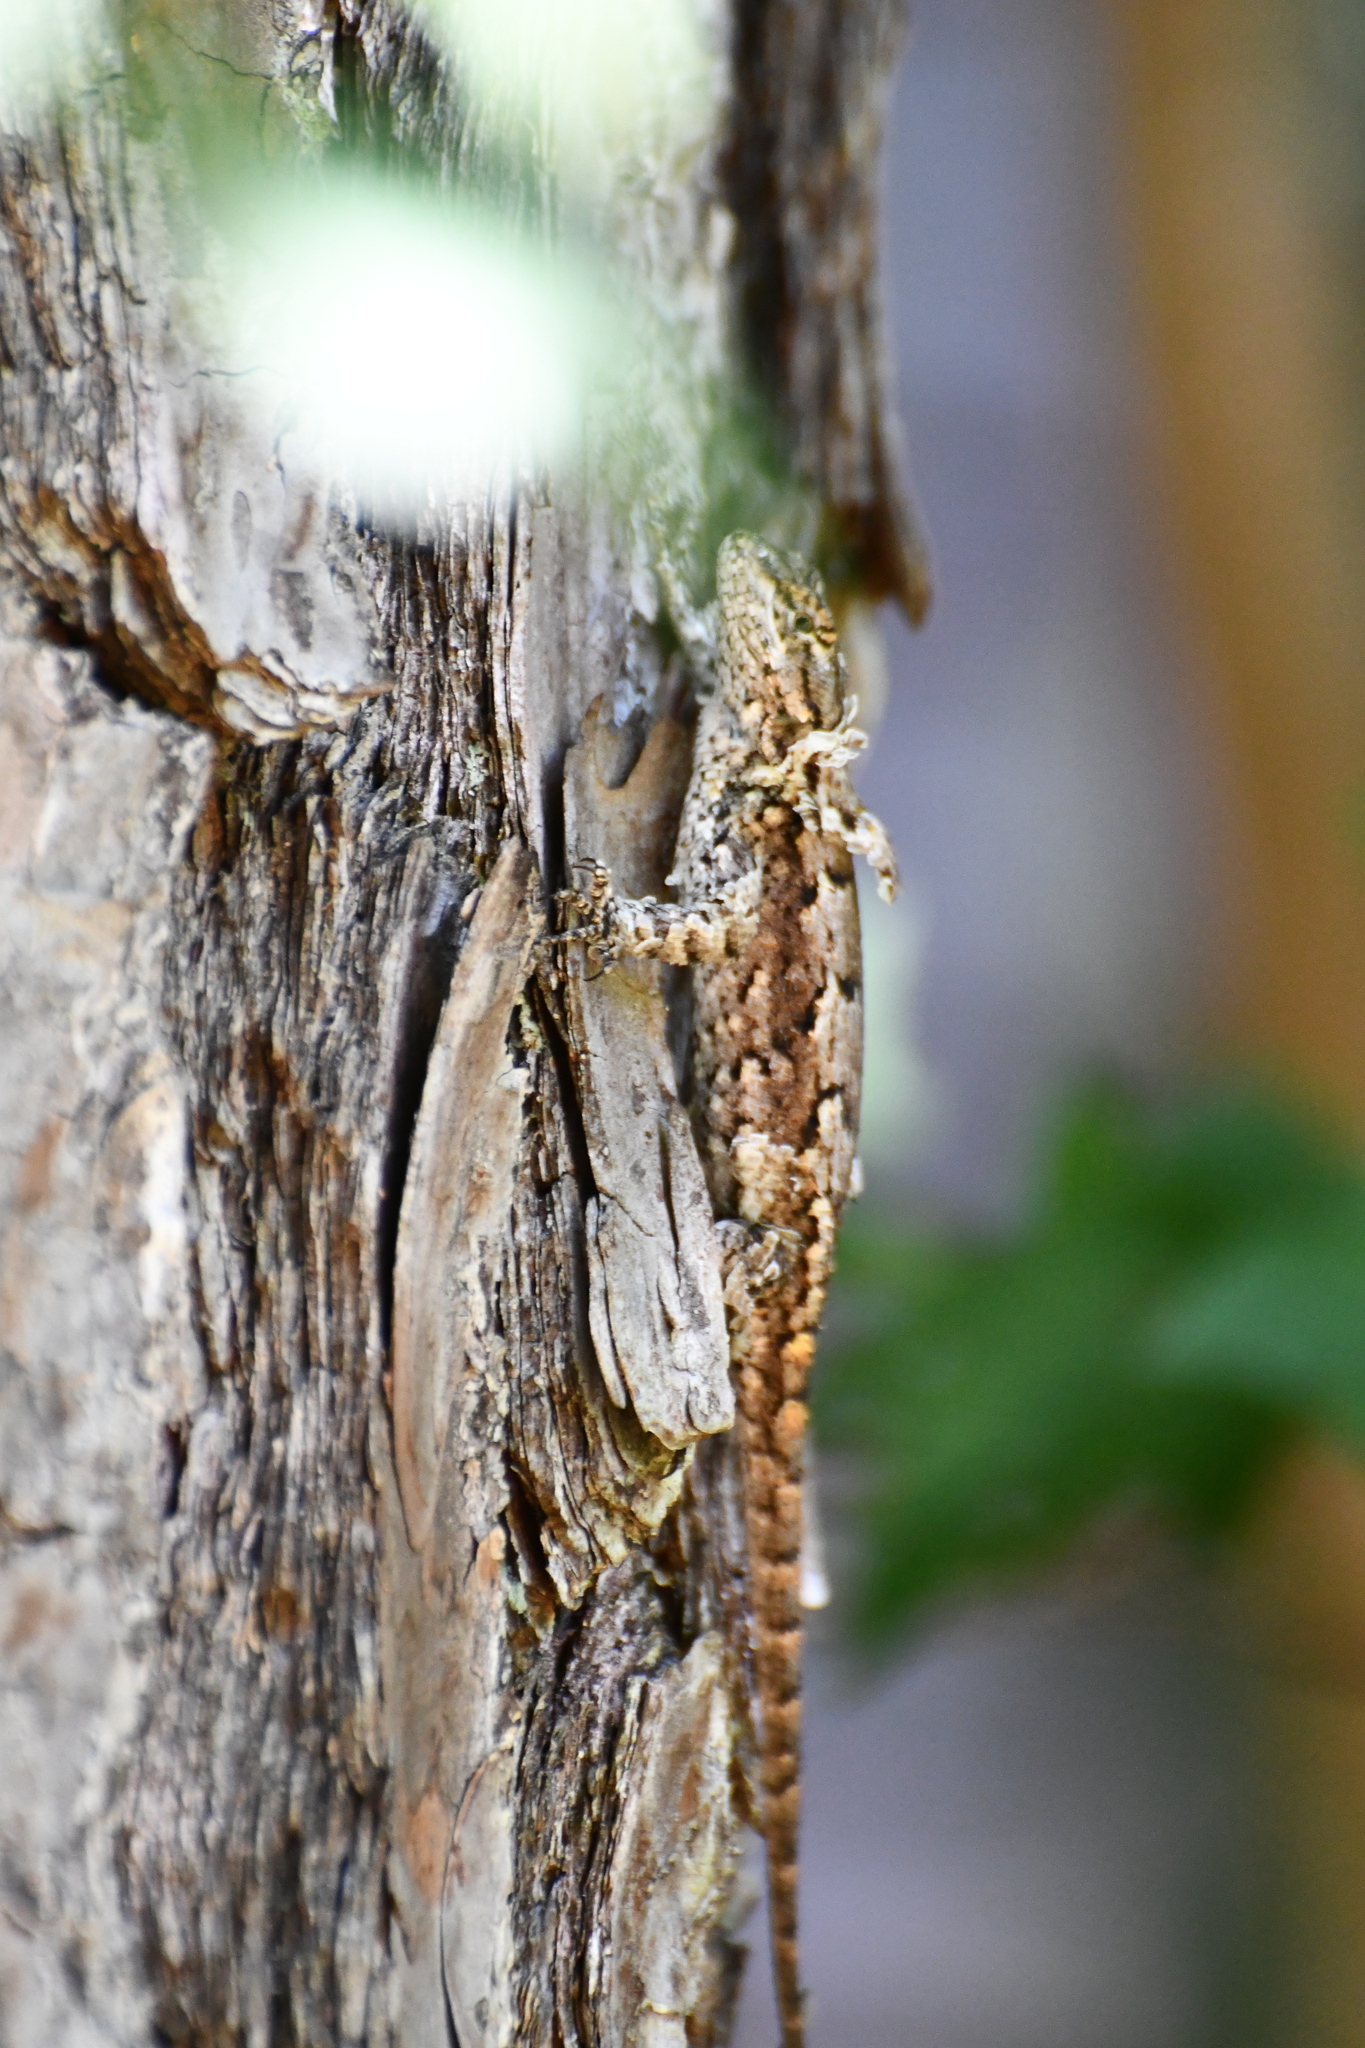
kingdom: Animalia
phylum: Chordata
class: Squamata
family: Phrynosomatidae
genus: Sceloporus
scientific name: Sceloporus undulatus
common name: Eastern fence lizard
